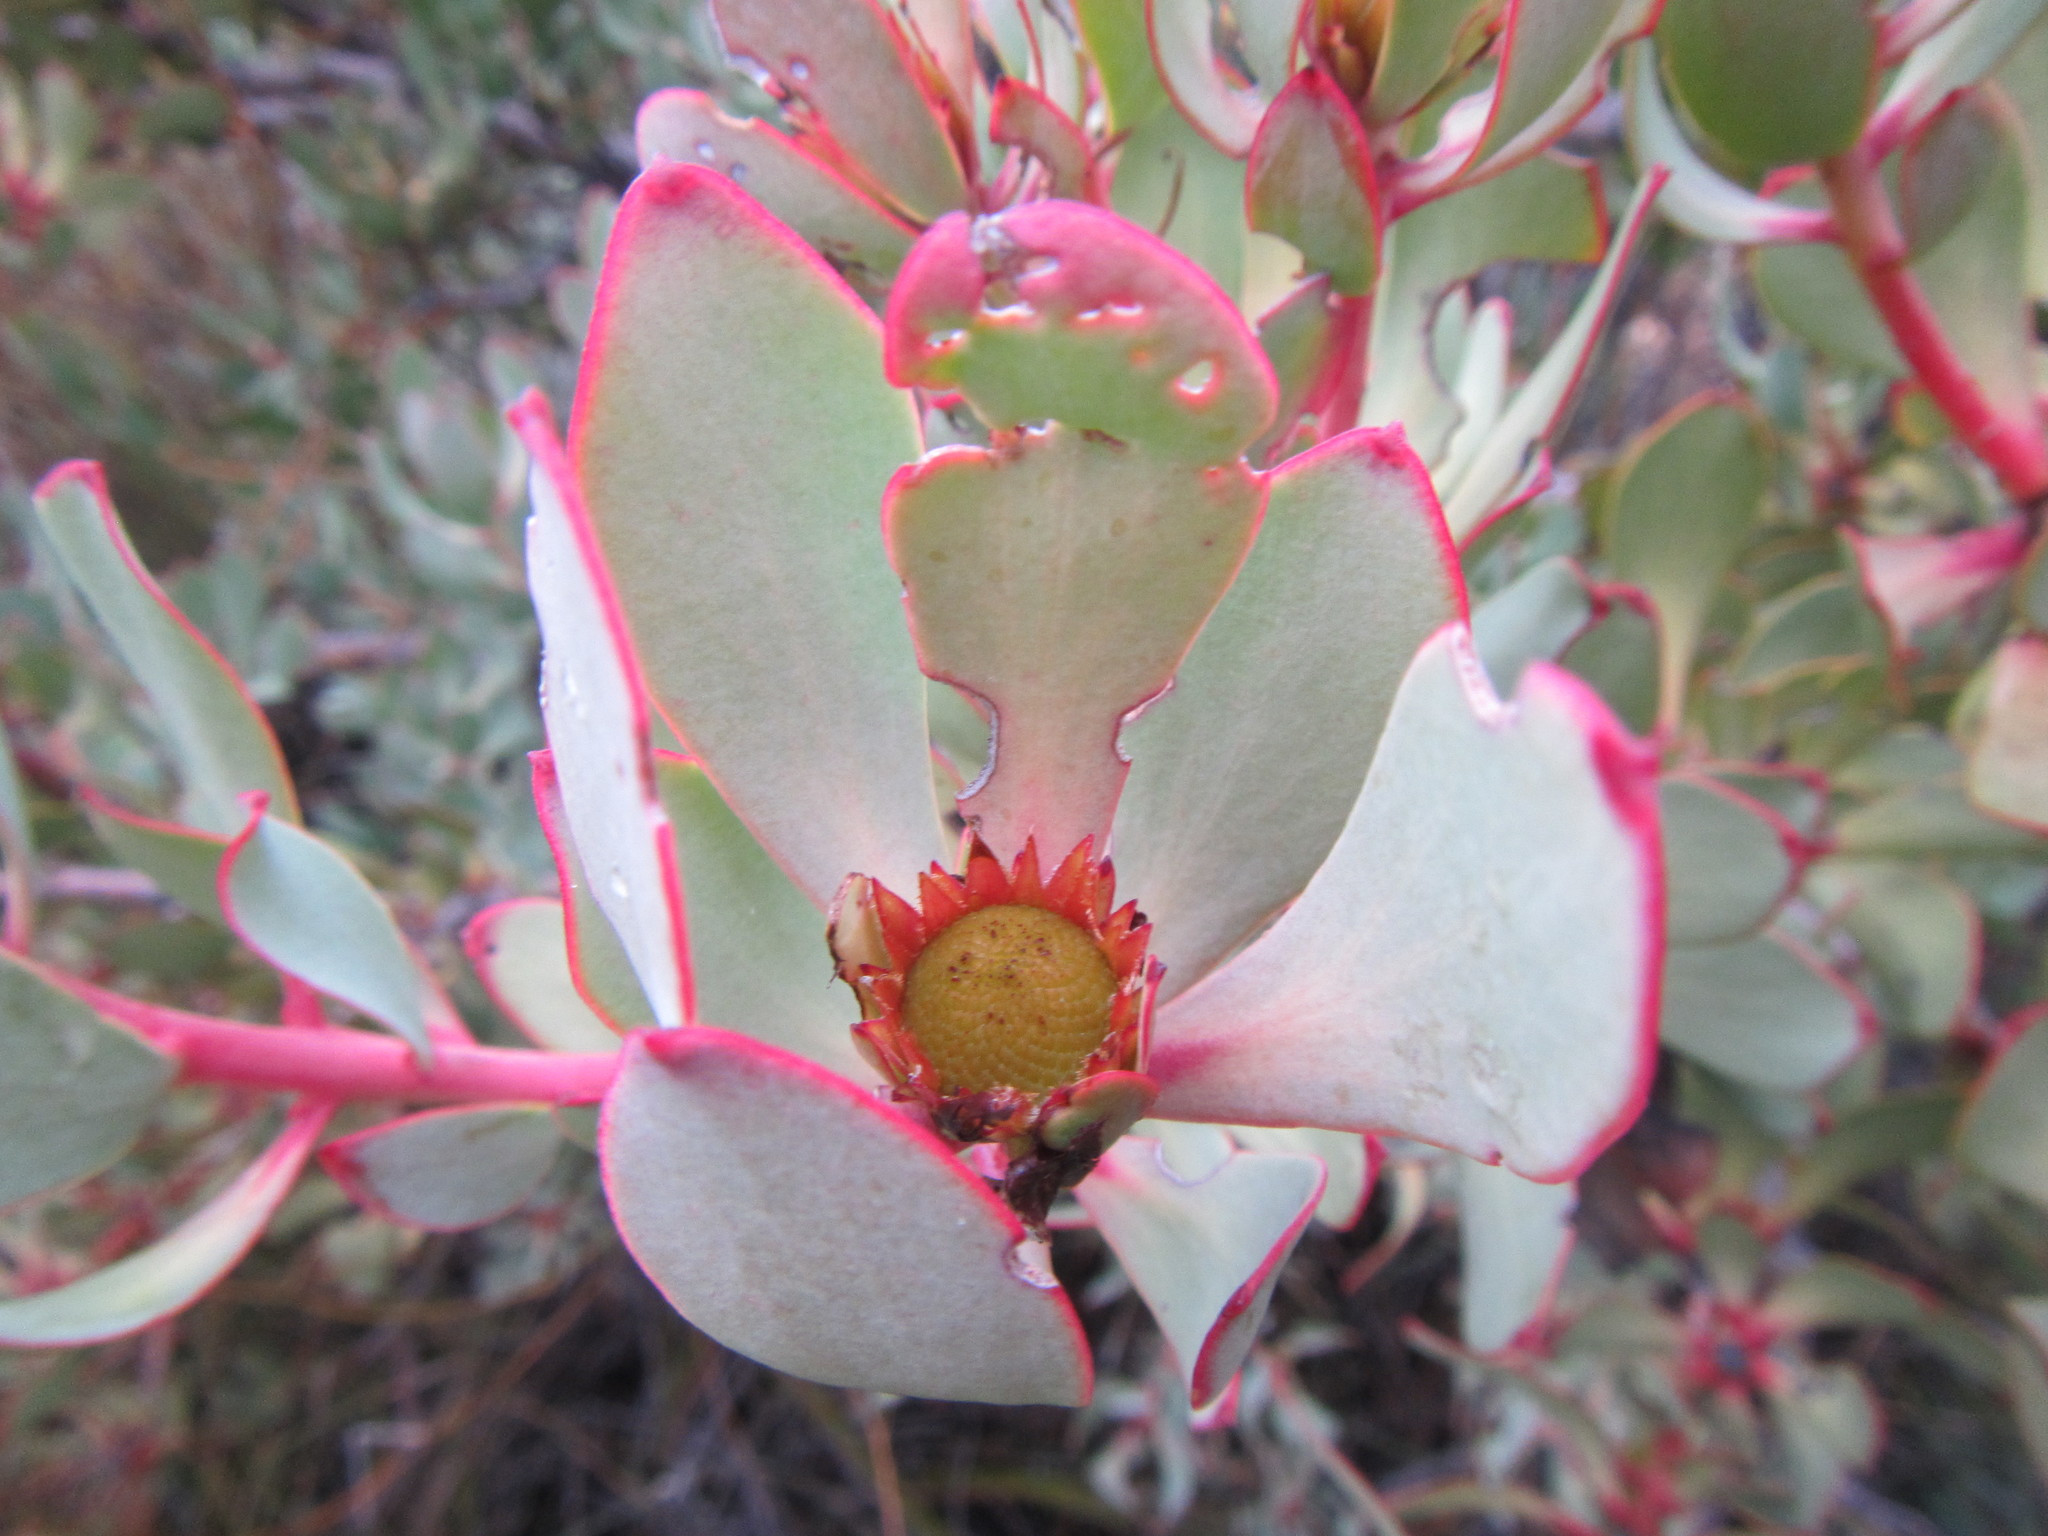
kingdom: Plantae
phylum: Tracheophyta
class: Magnoliopsida
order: Proteales
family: Proteaceae
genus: Leucadendron
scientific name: Leucadendron arcuatum
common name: Red-edge conebush
